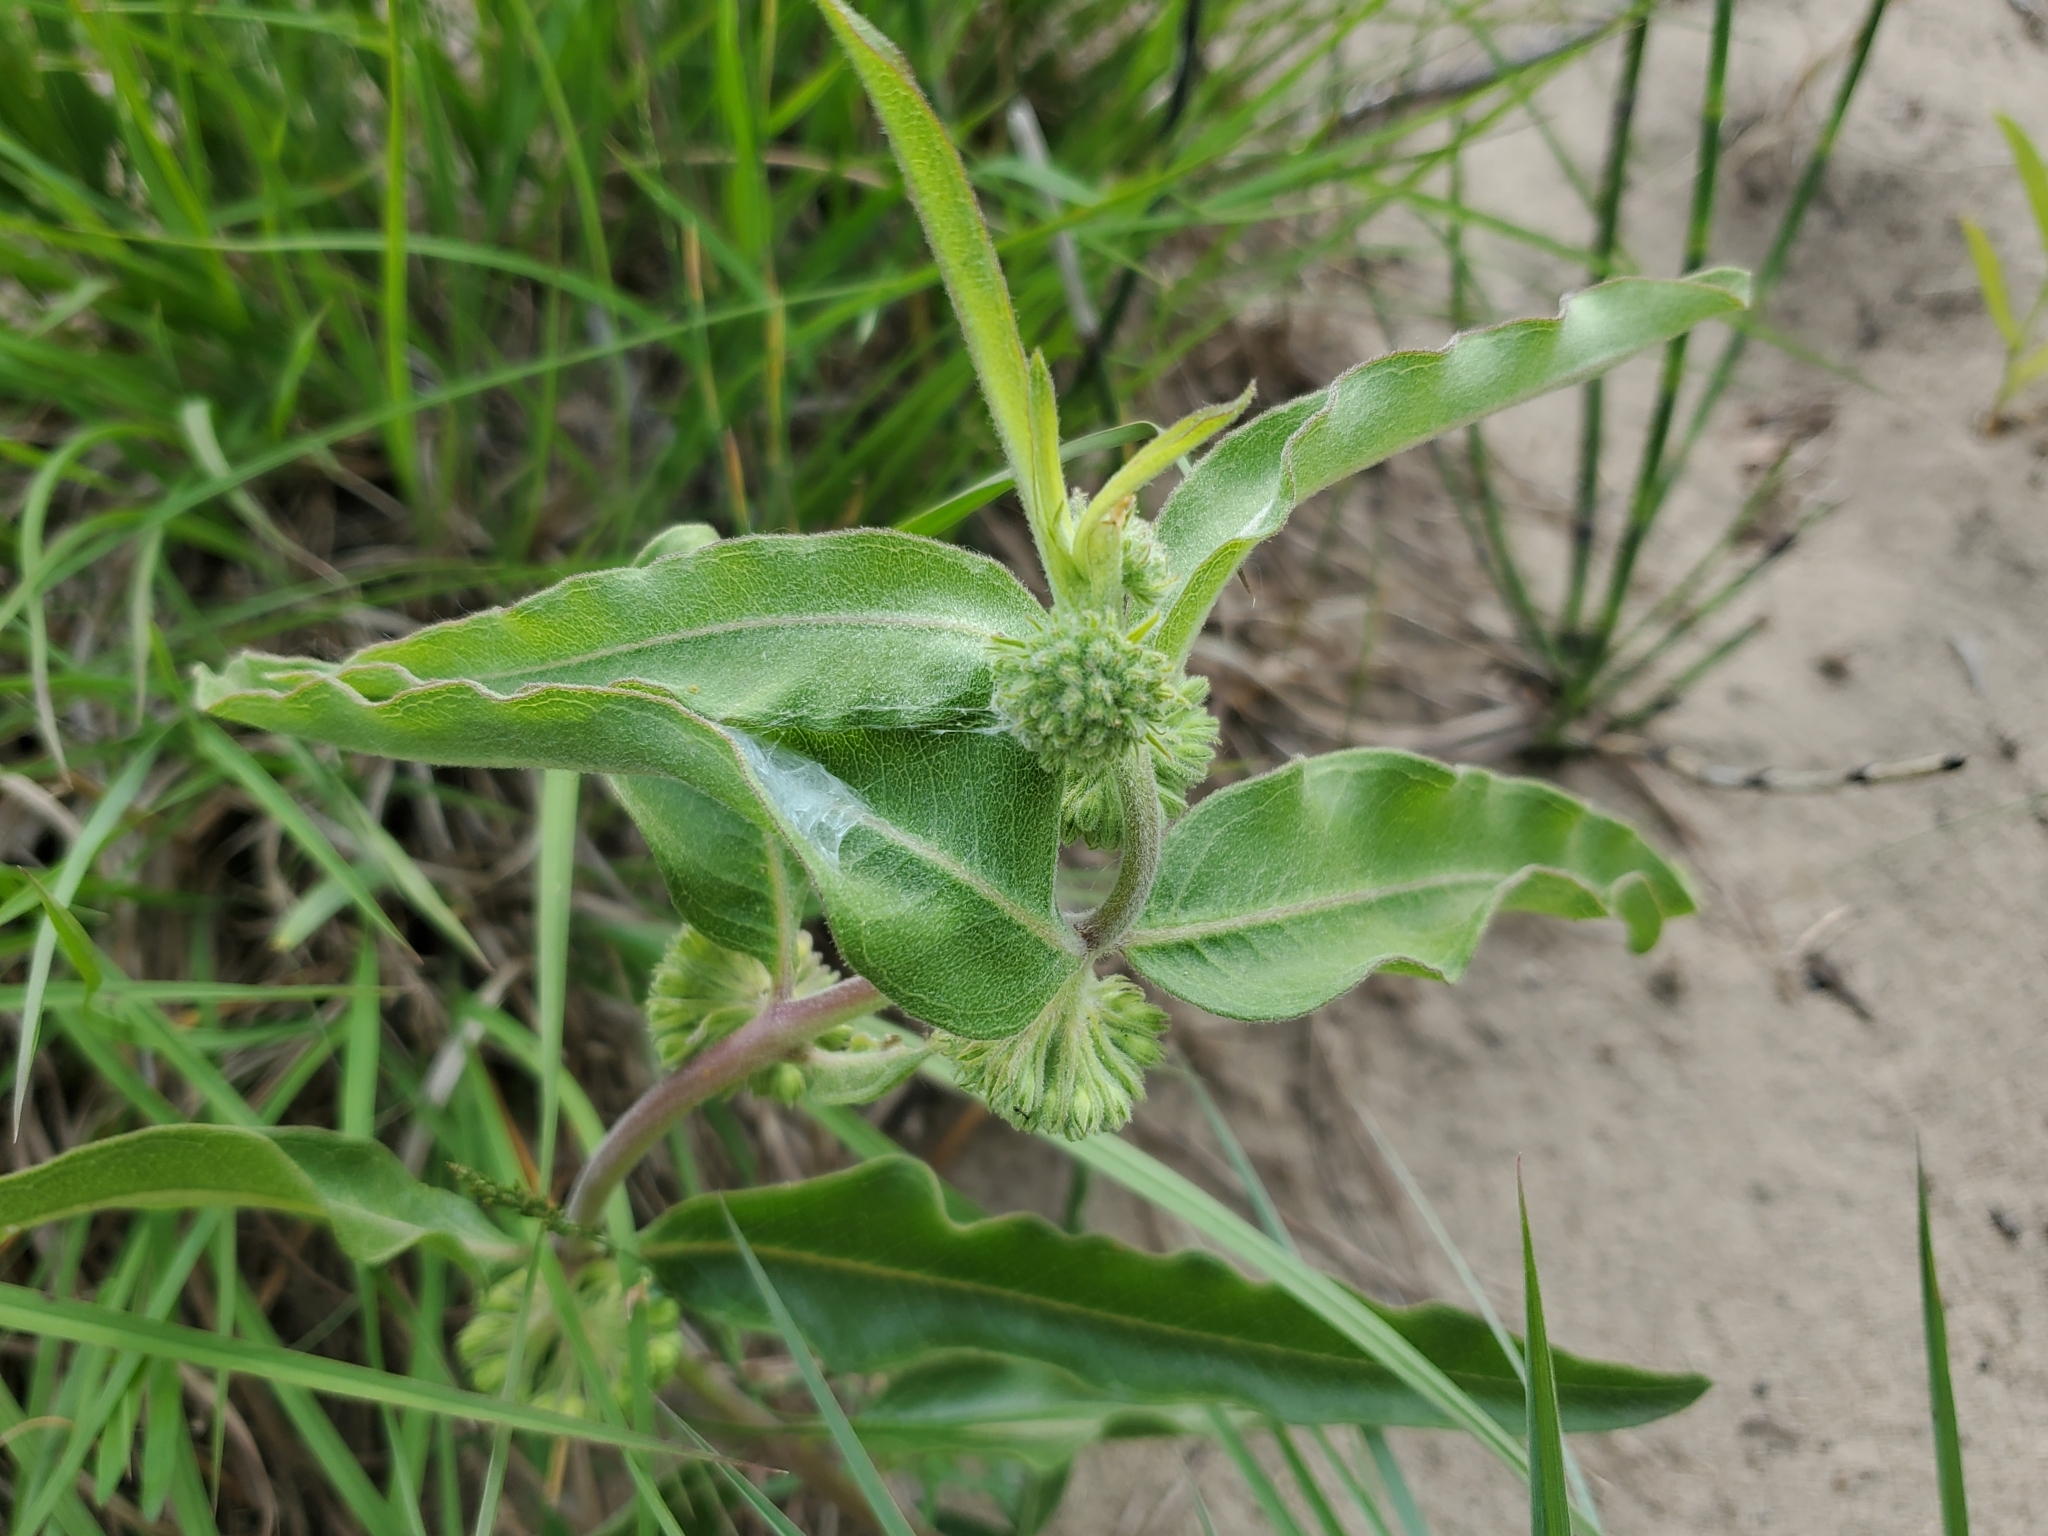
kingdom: Plantae
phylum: Tracheophyta
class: Magnoliopsida
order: Gentianales
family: Apocynaceae
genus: Asclepias
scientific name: Asclepias viridiflora
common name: Green comet milkweed
